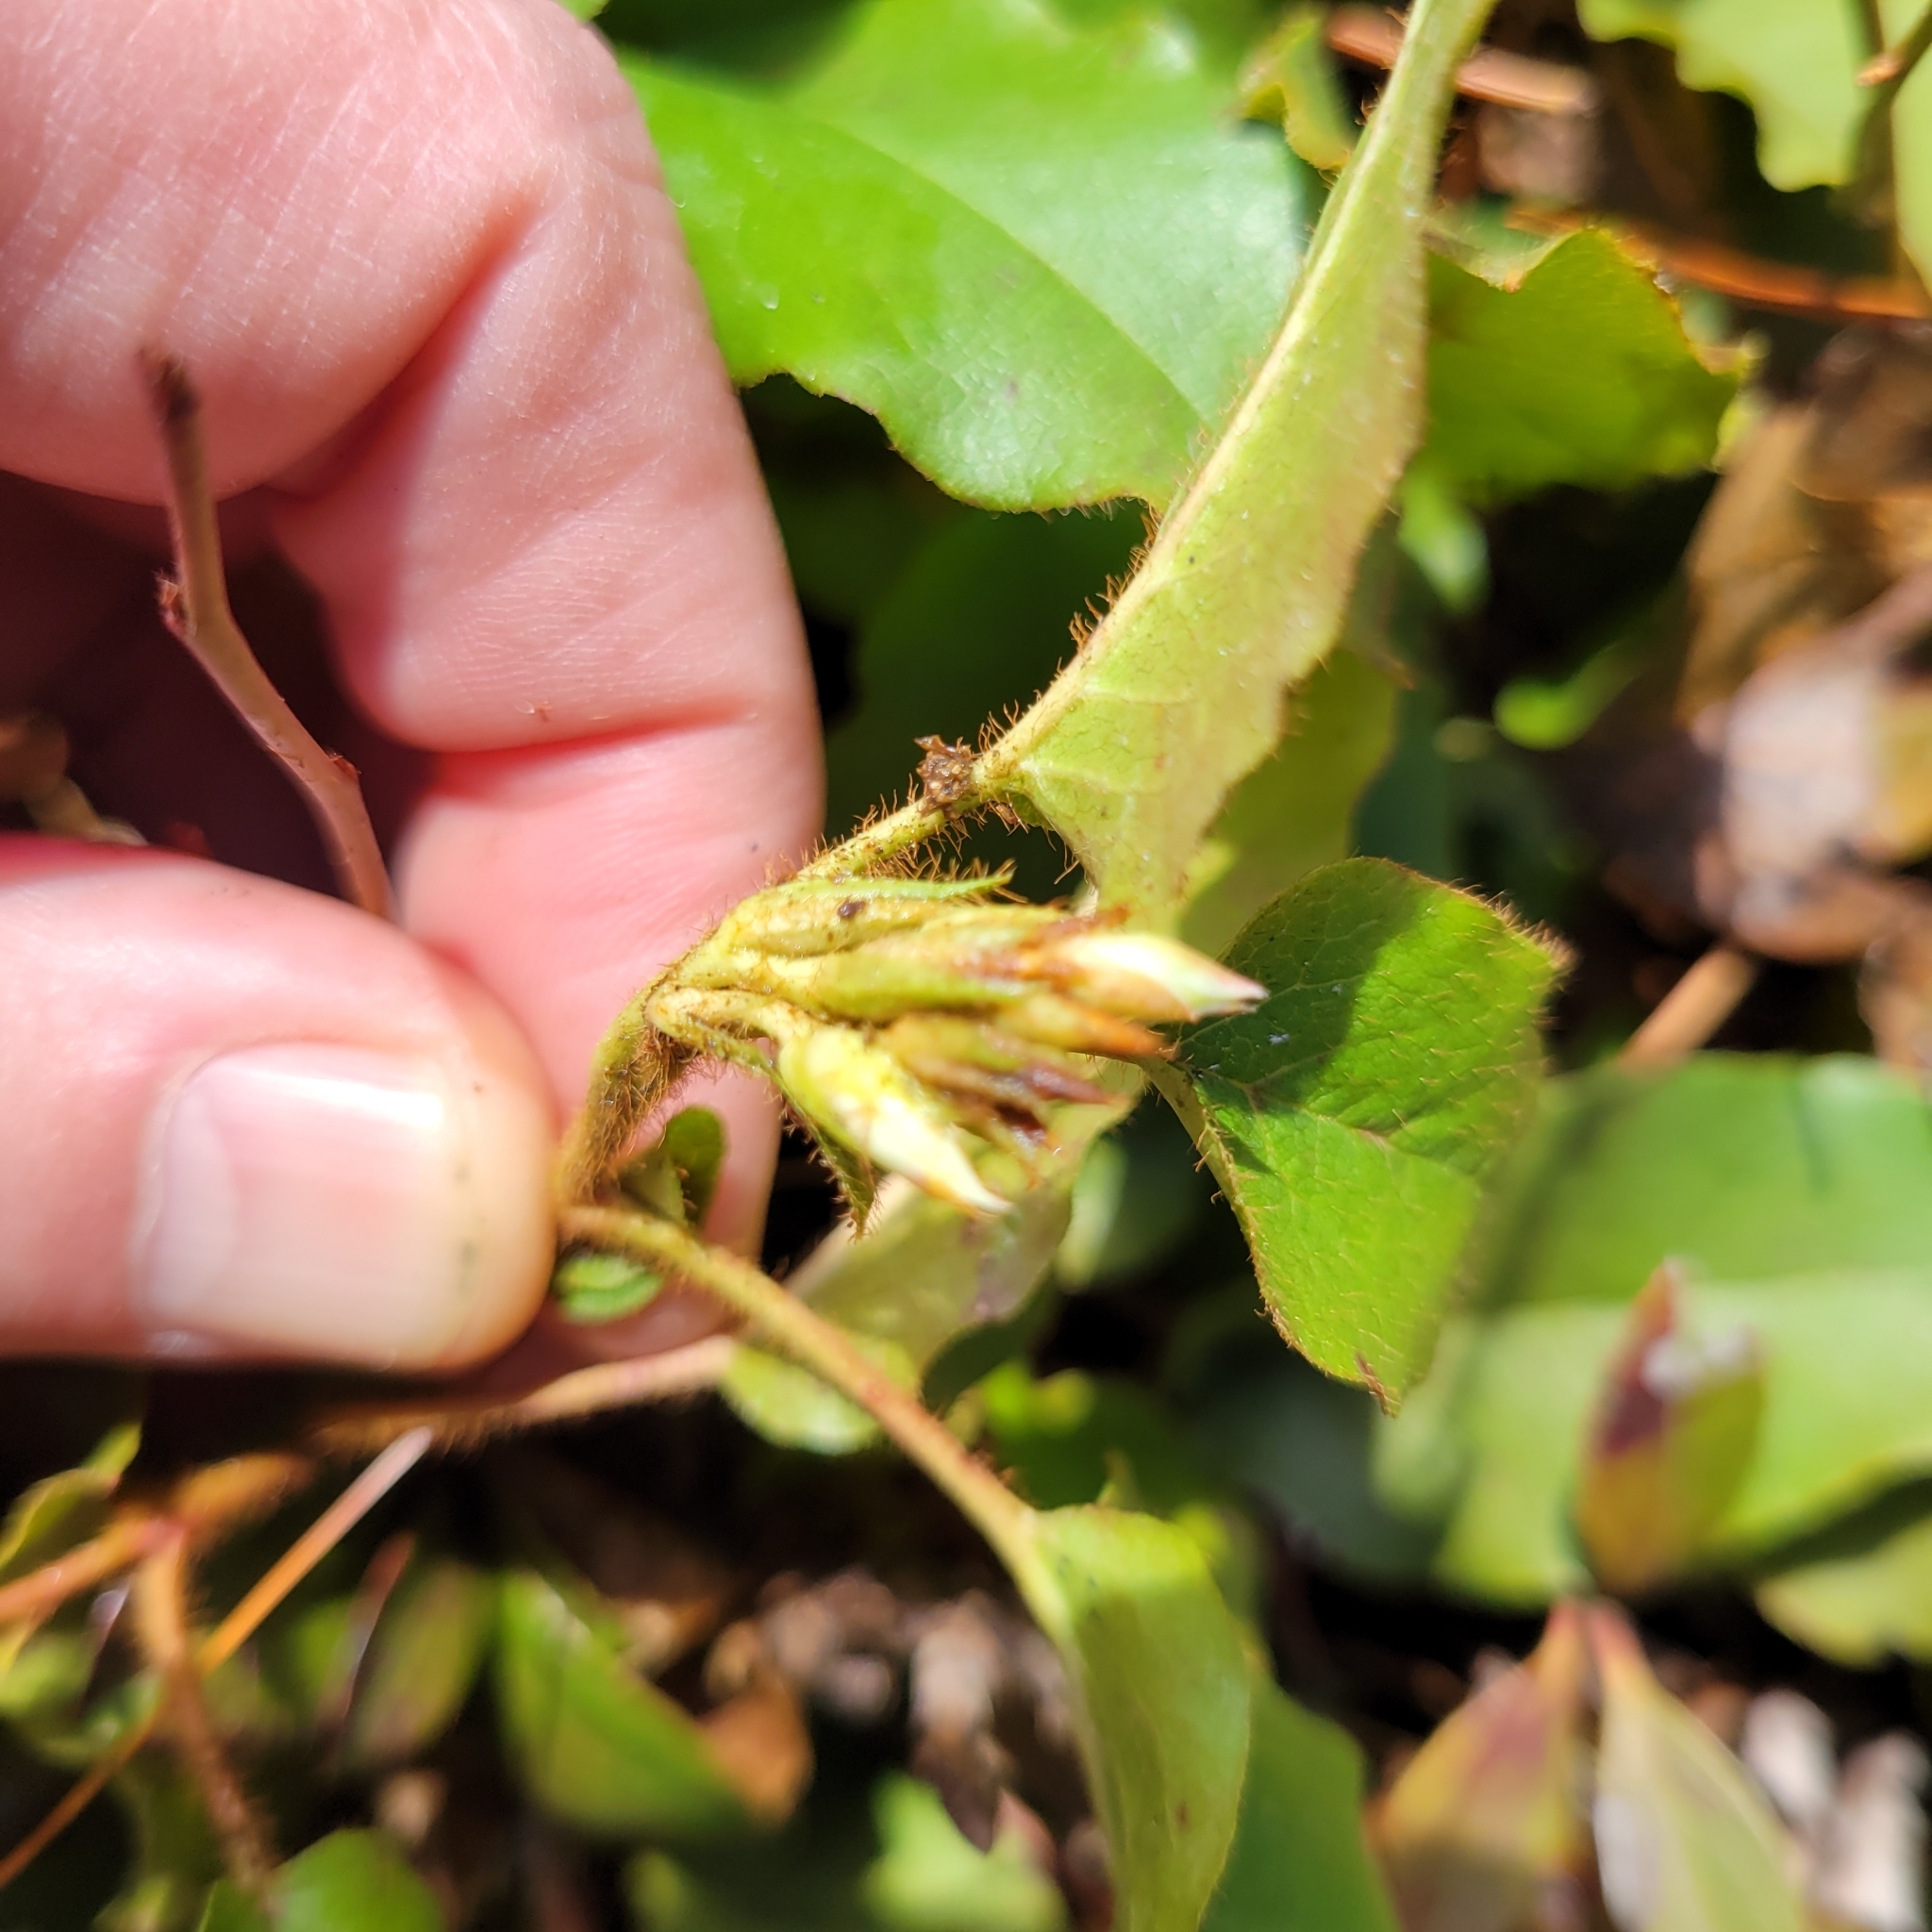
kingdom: Plantae
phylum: Tracheophyta
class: Magnoliopsida
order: Ericales
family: Ericaceae
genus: Epigaea
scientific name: Epigaea repens
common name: Gravelroot
